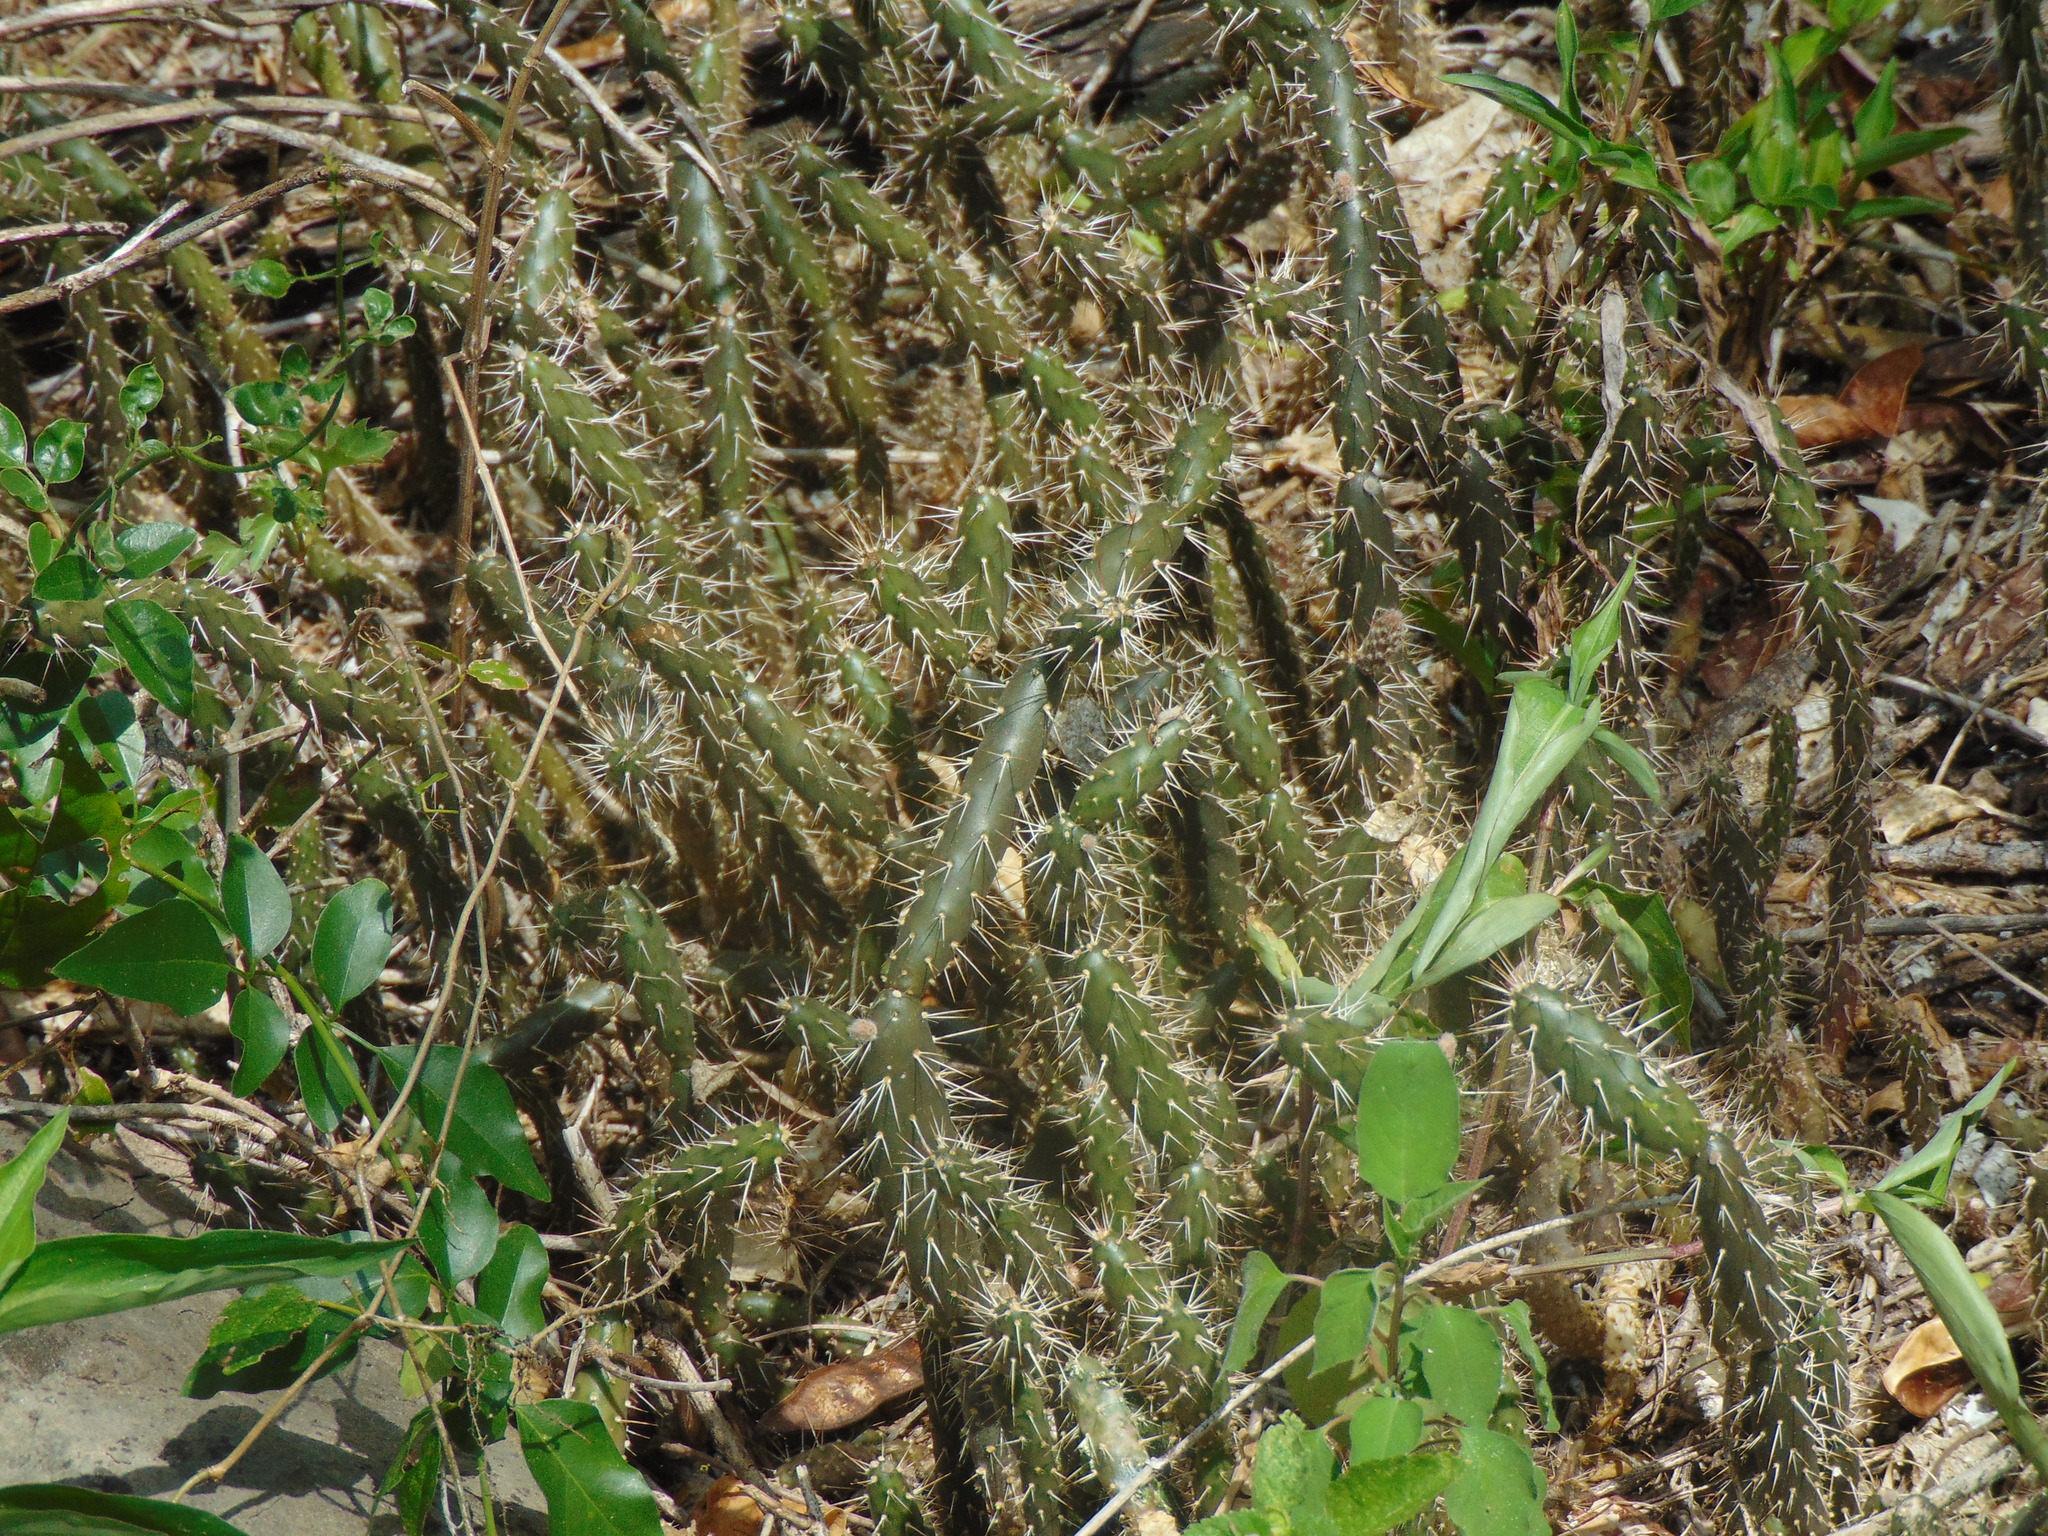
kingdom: Plantae
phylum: Tracheophyta
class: Magnoliopsida
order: Caryophyllales
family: Cactaceae
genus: Opuntia
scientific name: Opuntia repens
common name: Roving pricklypear
